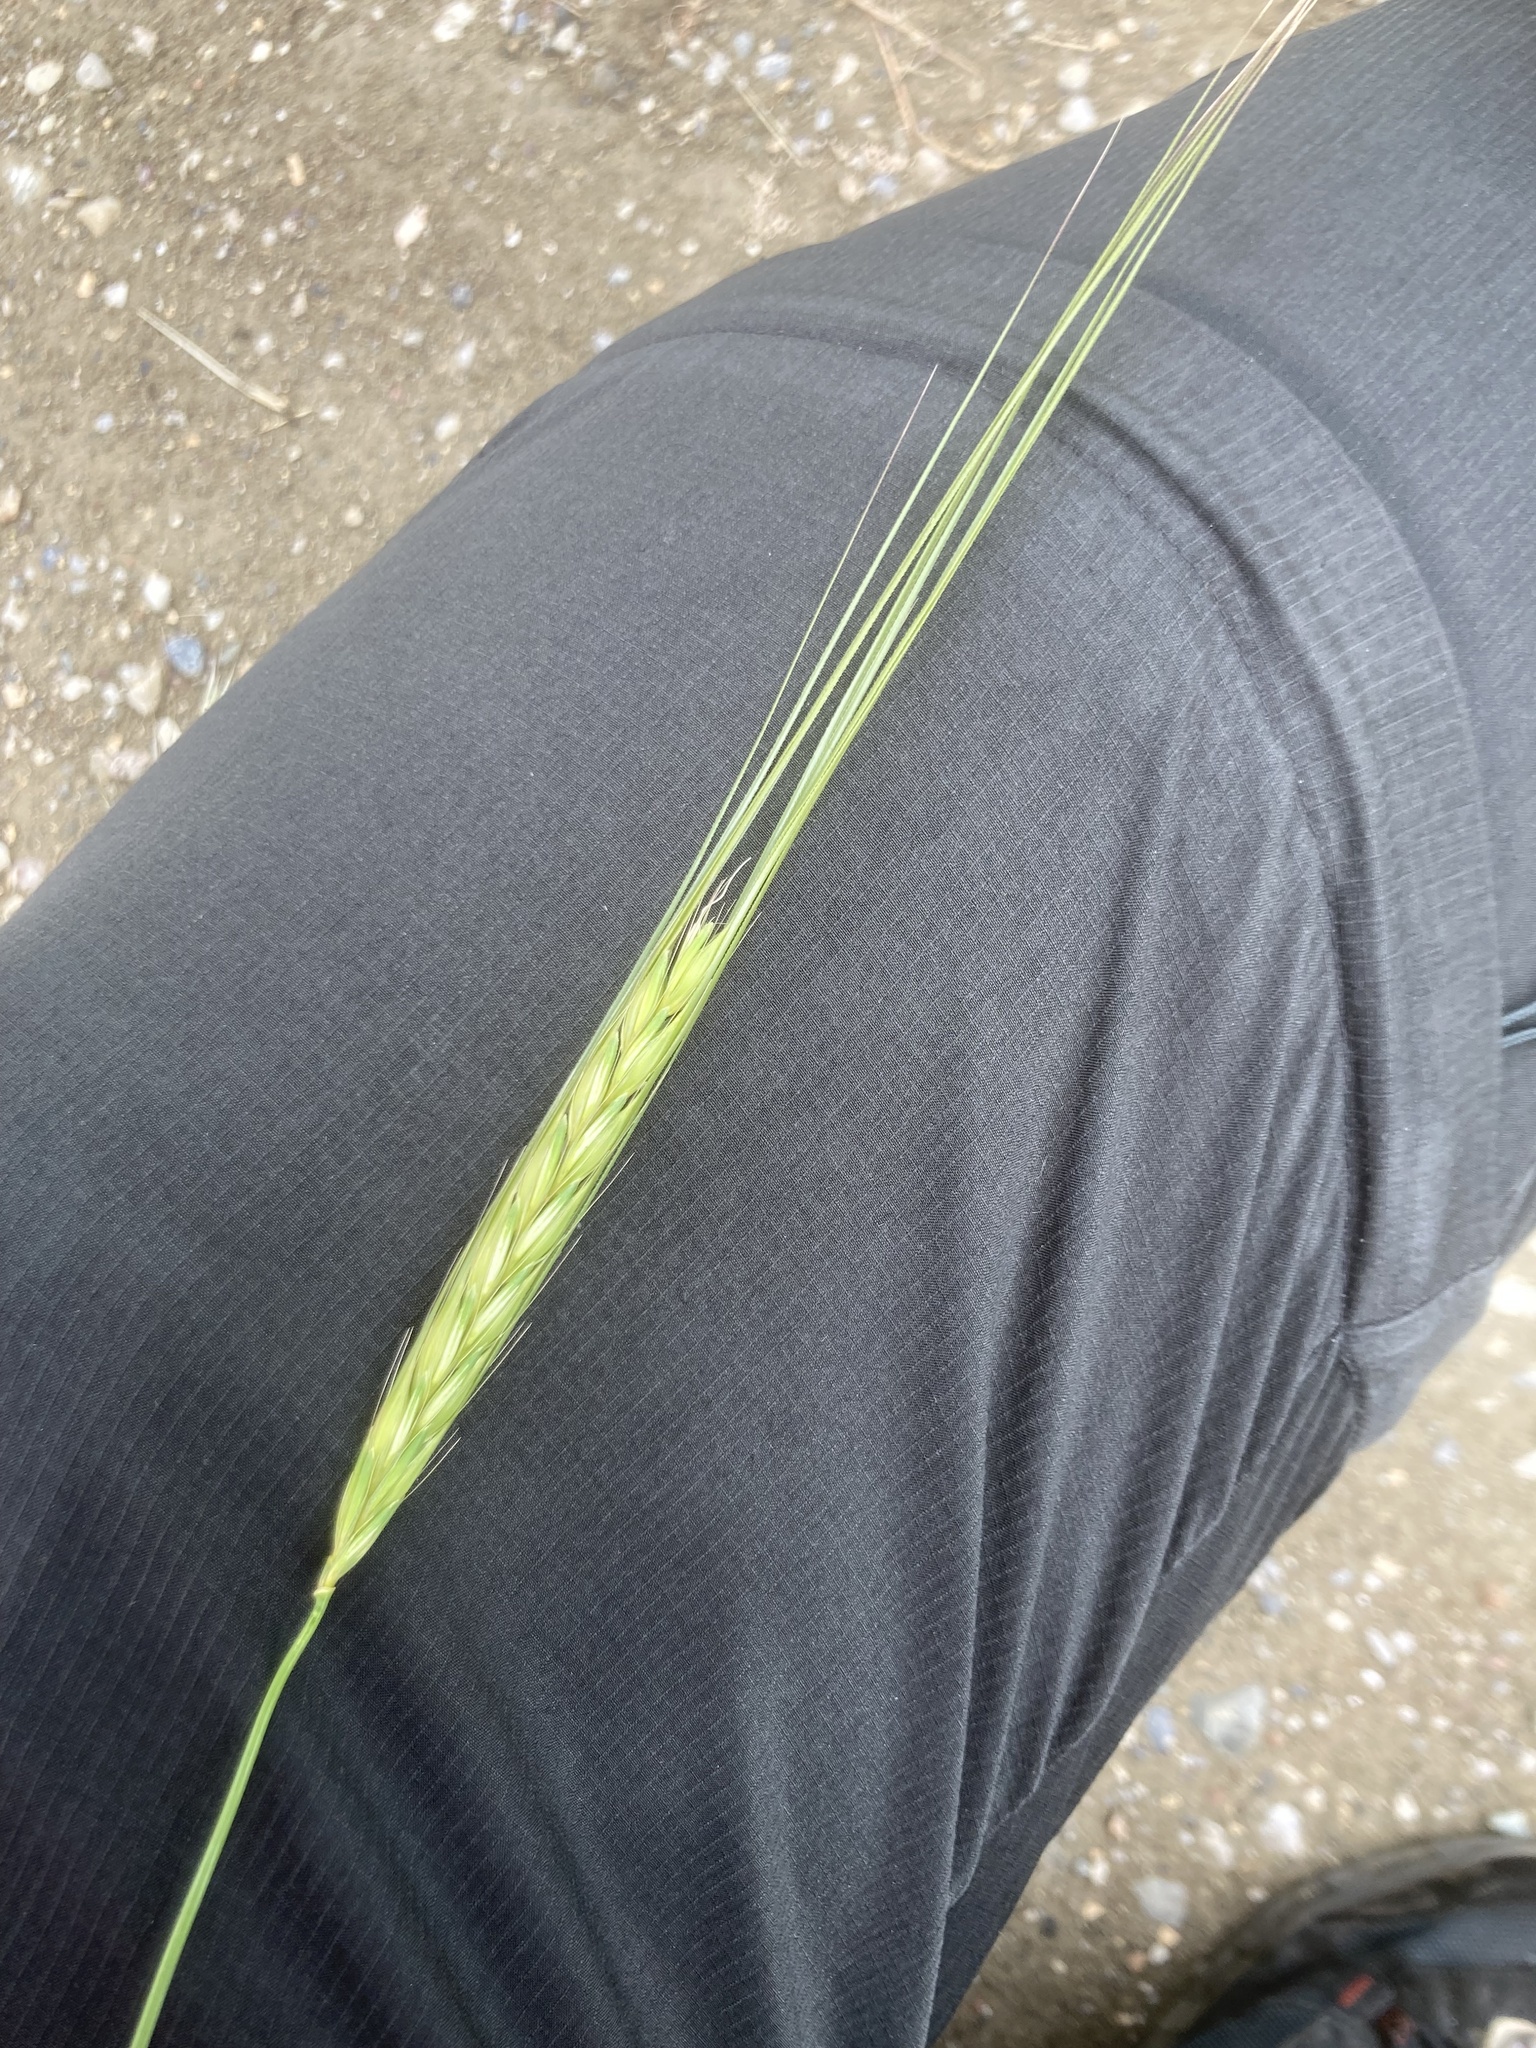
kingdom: Plantae
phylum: Tracheophyta
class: Liliopsida
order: Poales
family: Poaceae
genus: Hordeum
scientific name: Hordeum spontaneum
